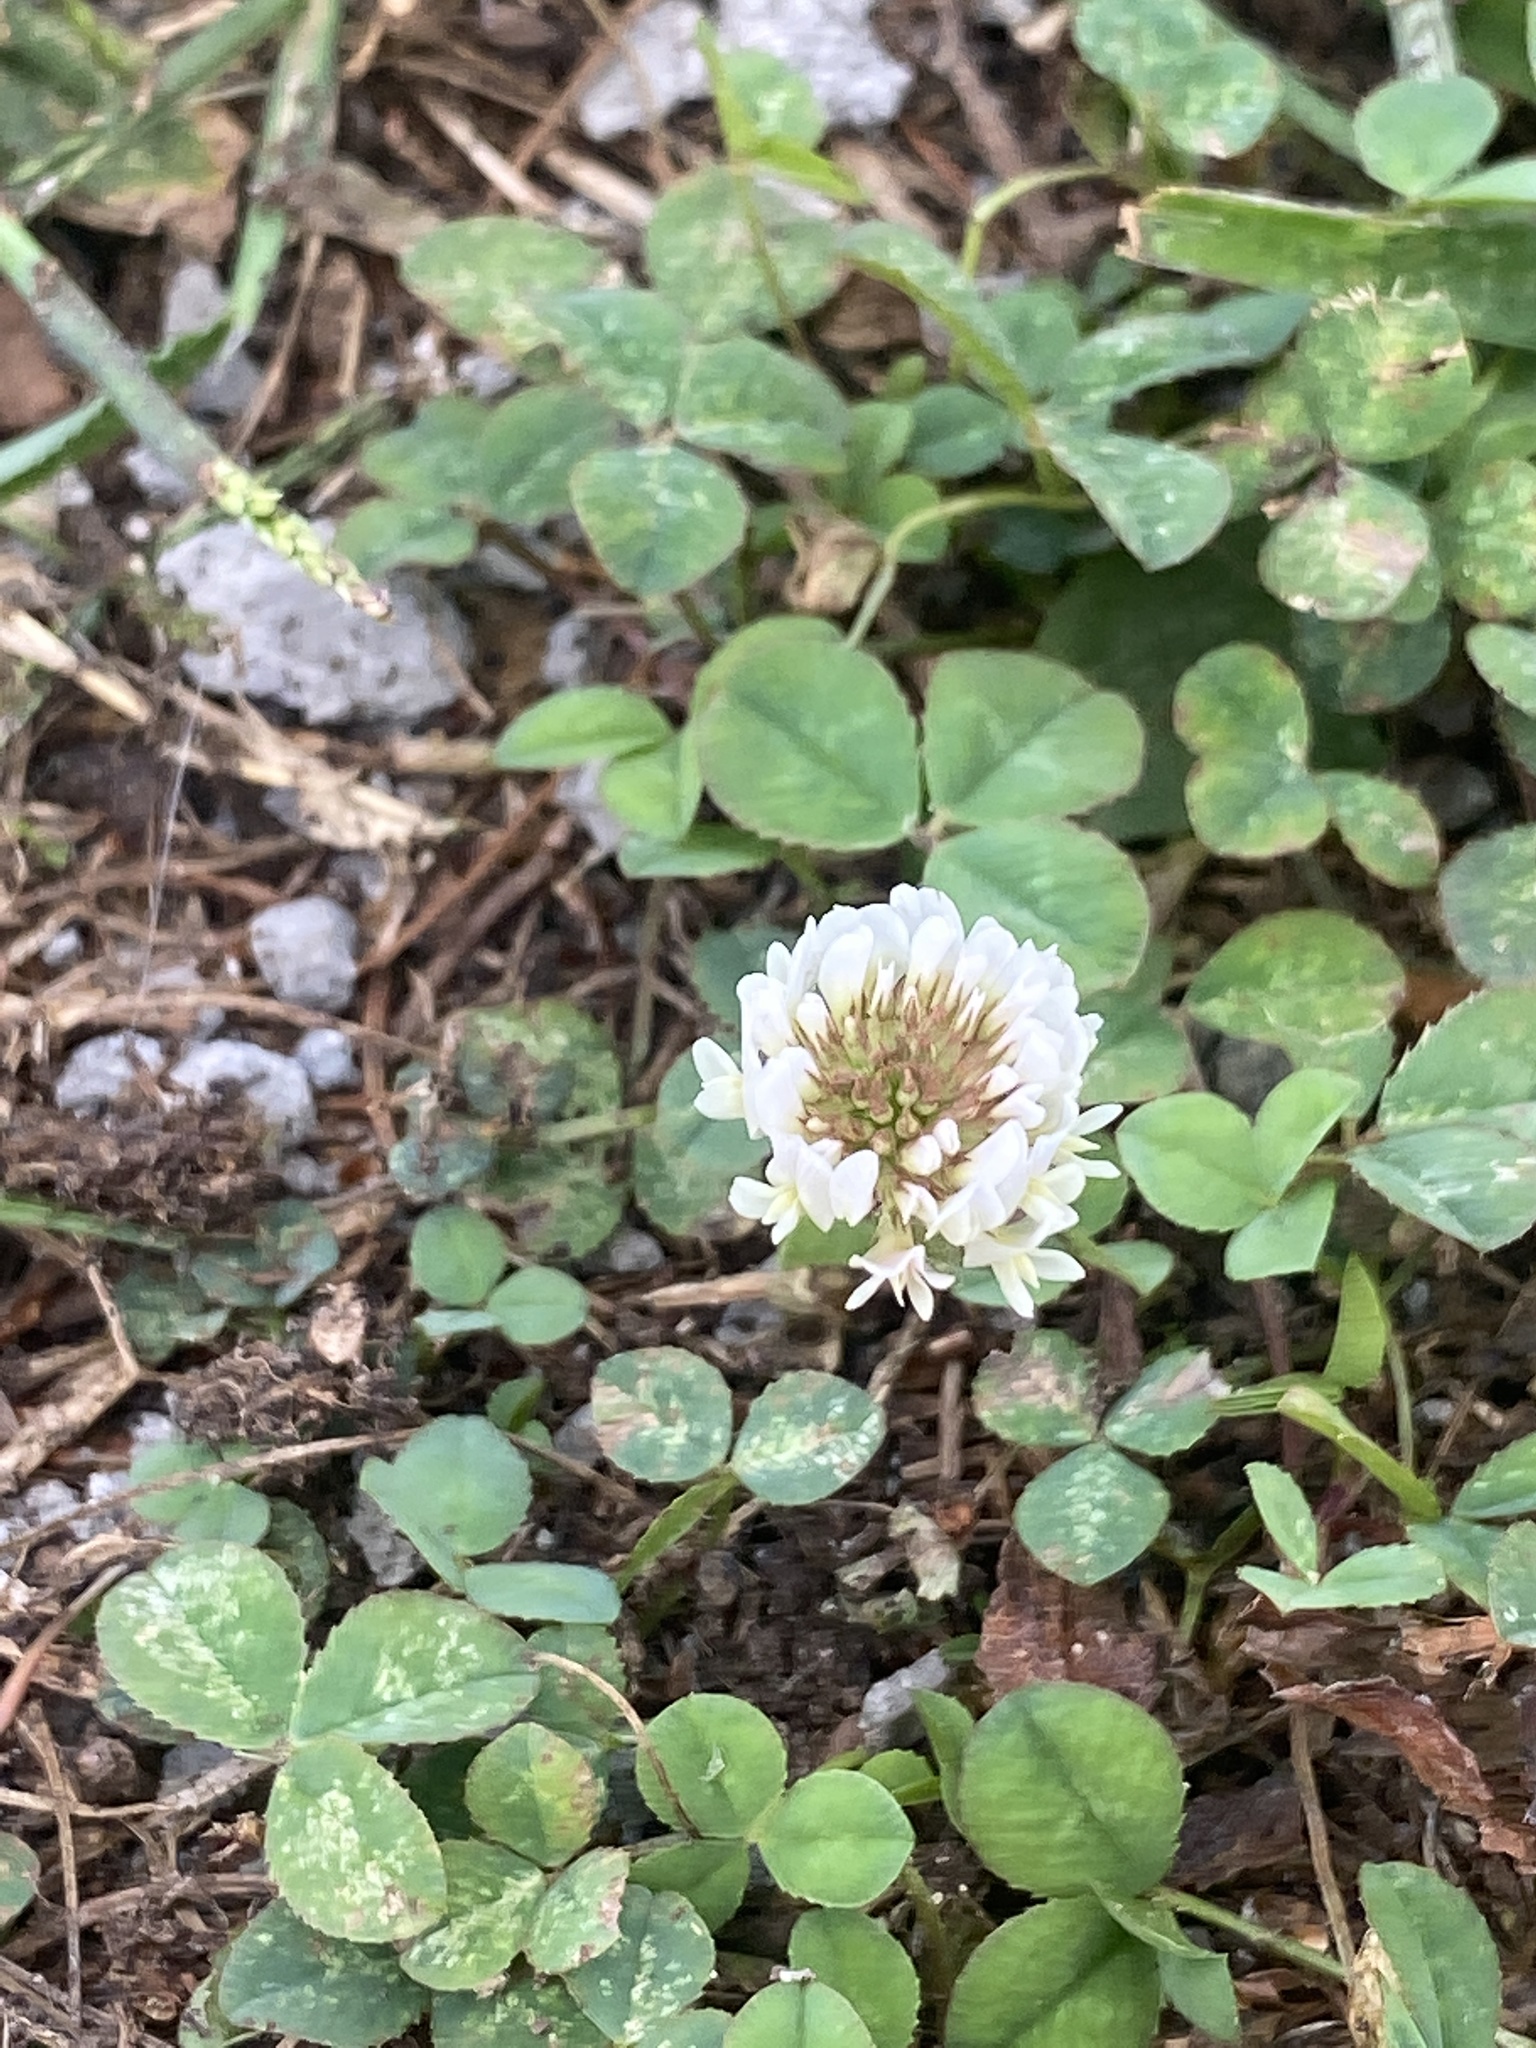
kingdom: Plantae
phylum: Tracheophyta
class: Magnoliopsida
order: Fabales
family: Fabaceae
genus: Trifolium
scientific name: Trifolium repens
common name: White clover
